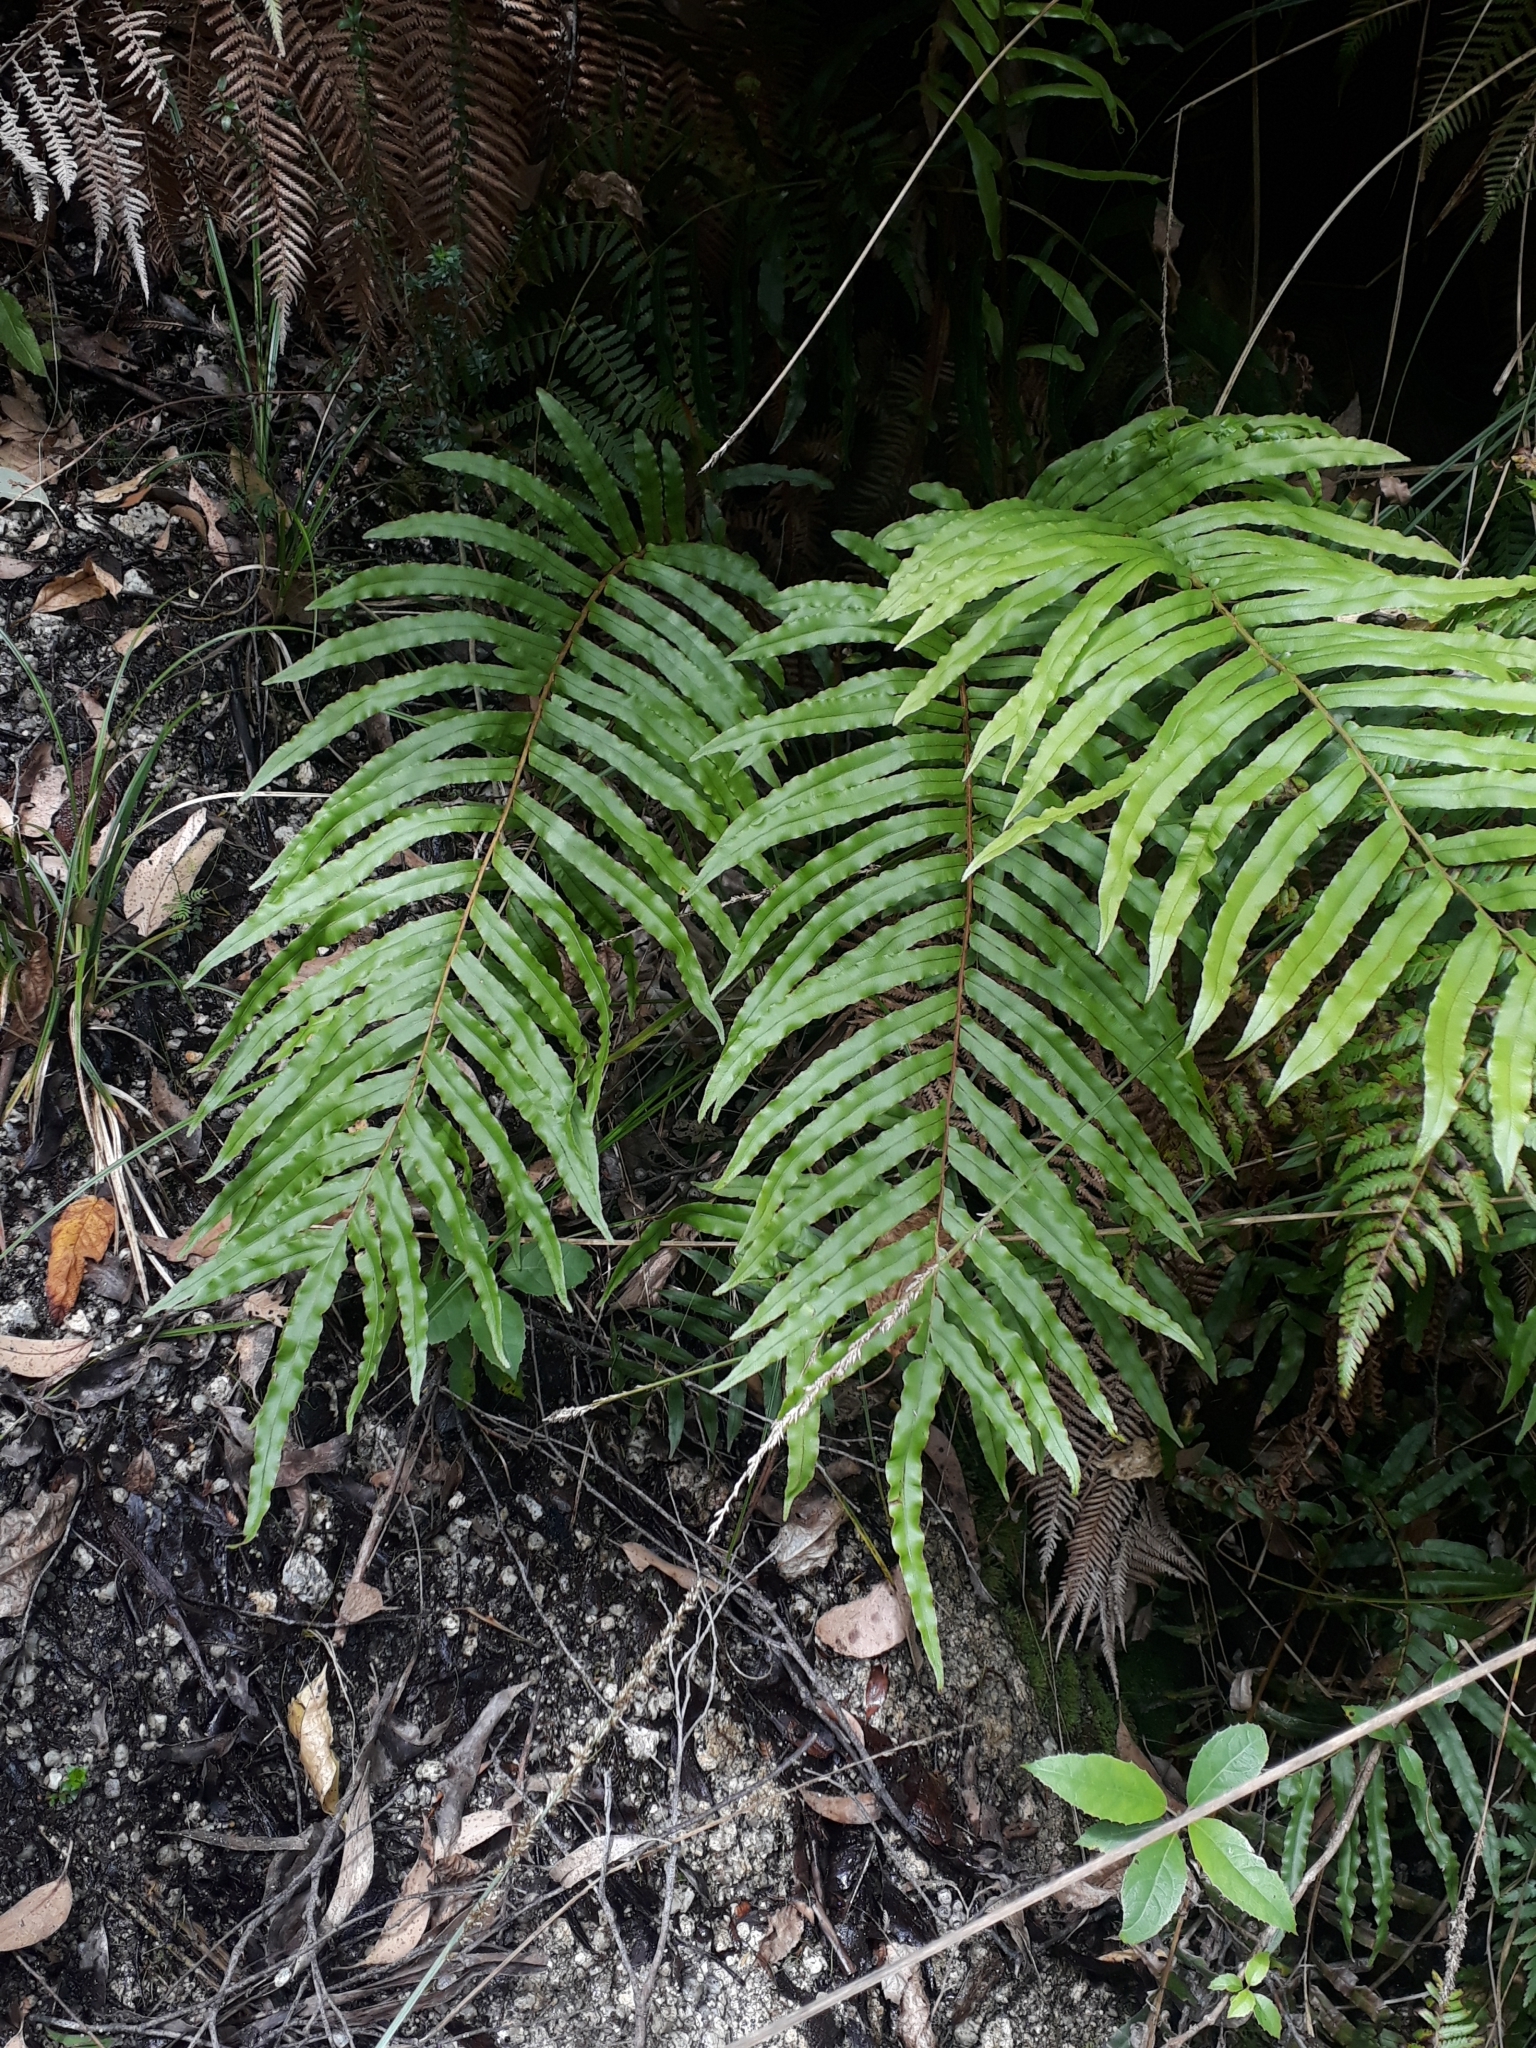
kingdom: Plantae
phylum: Tracheophyta
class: Polypodiopsida
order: Polypodiales
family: Blechnaceae
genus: Parablechnum
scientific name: Parablechnum minus
